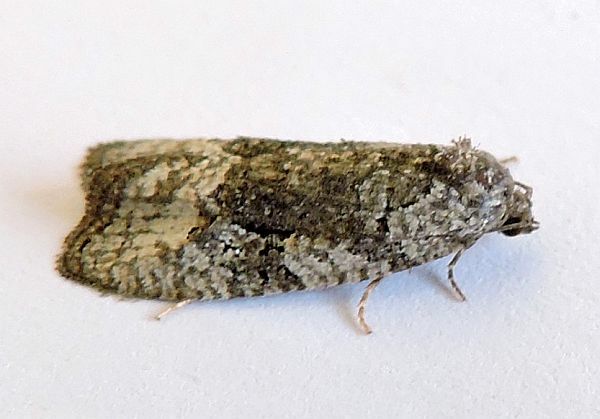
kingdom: Animalia
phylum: Arthropoda
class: Insecta
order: Lepidoptera
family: Tortricidae
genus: Apotomops
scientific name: Apotomops texasana
